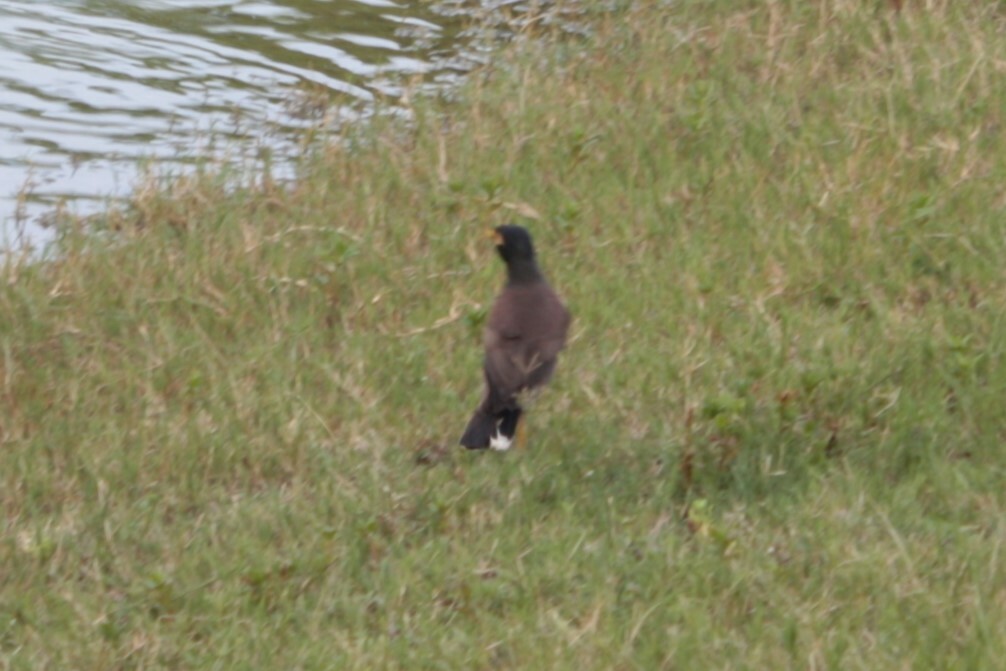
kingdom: Animalia
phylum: Chordata
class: Aves
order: Passeriformes
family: Sturnidae
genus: Acridotheres
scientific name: Acridotheres tristis
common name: Common myna
